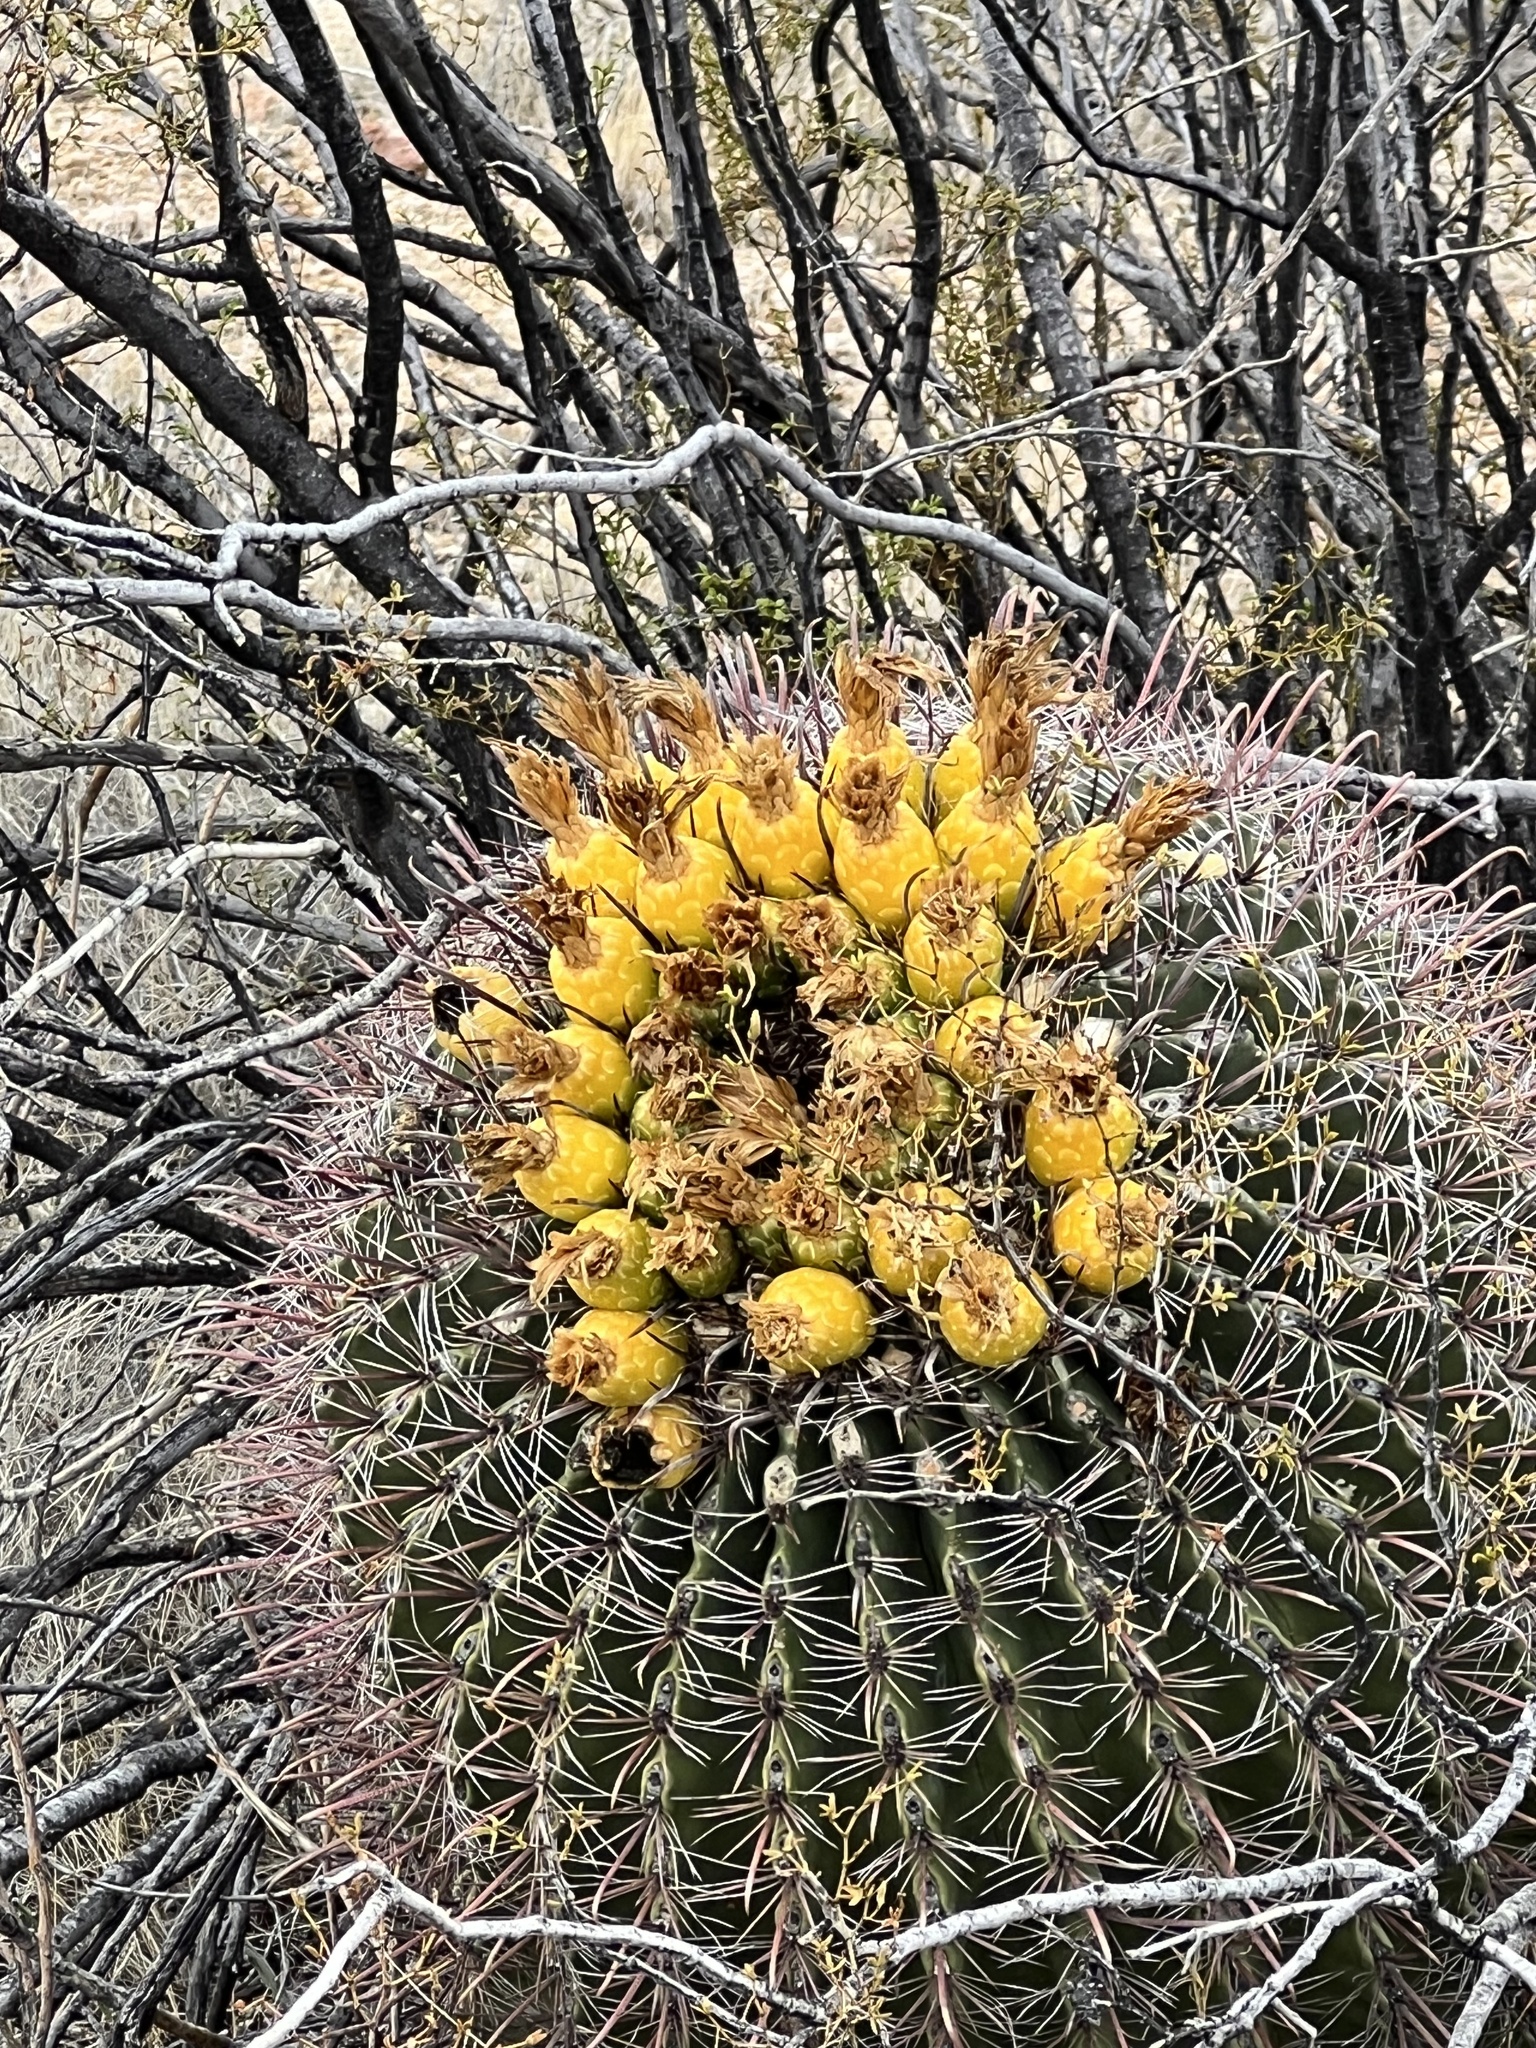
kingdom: Plantae
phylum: Tracheophyta
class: Magnoliopsida
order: Caryophyllales
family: Cactaceae
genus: Ferocactus
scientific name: Ferocactus wislizeni
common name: Candy barrel cactus
